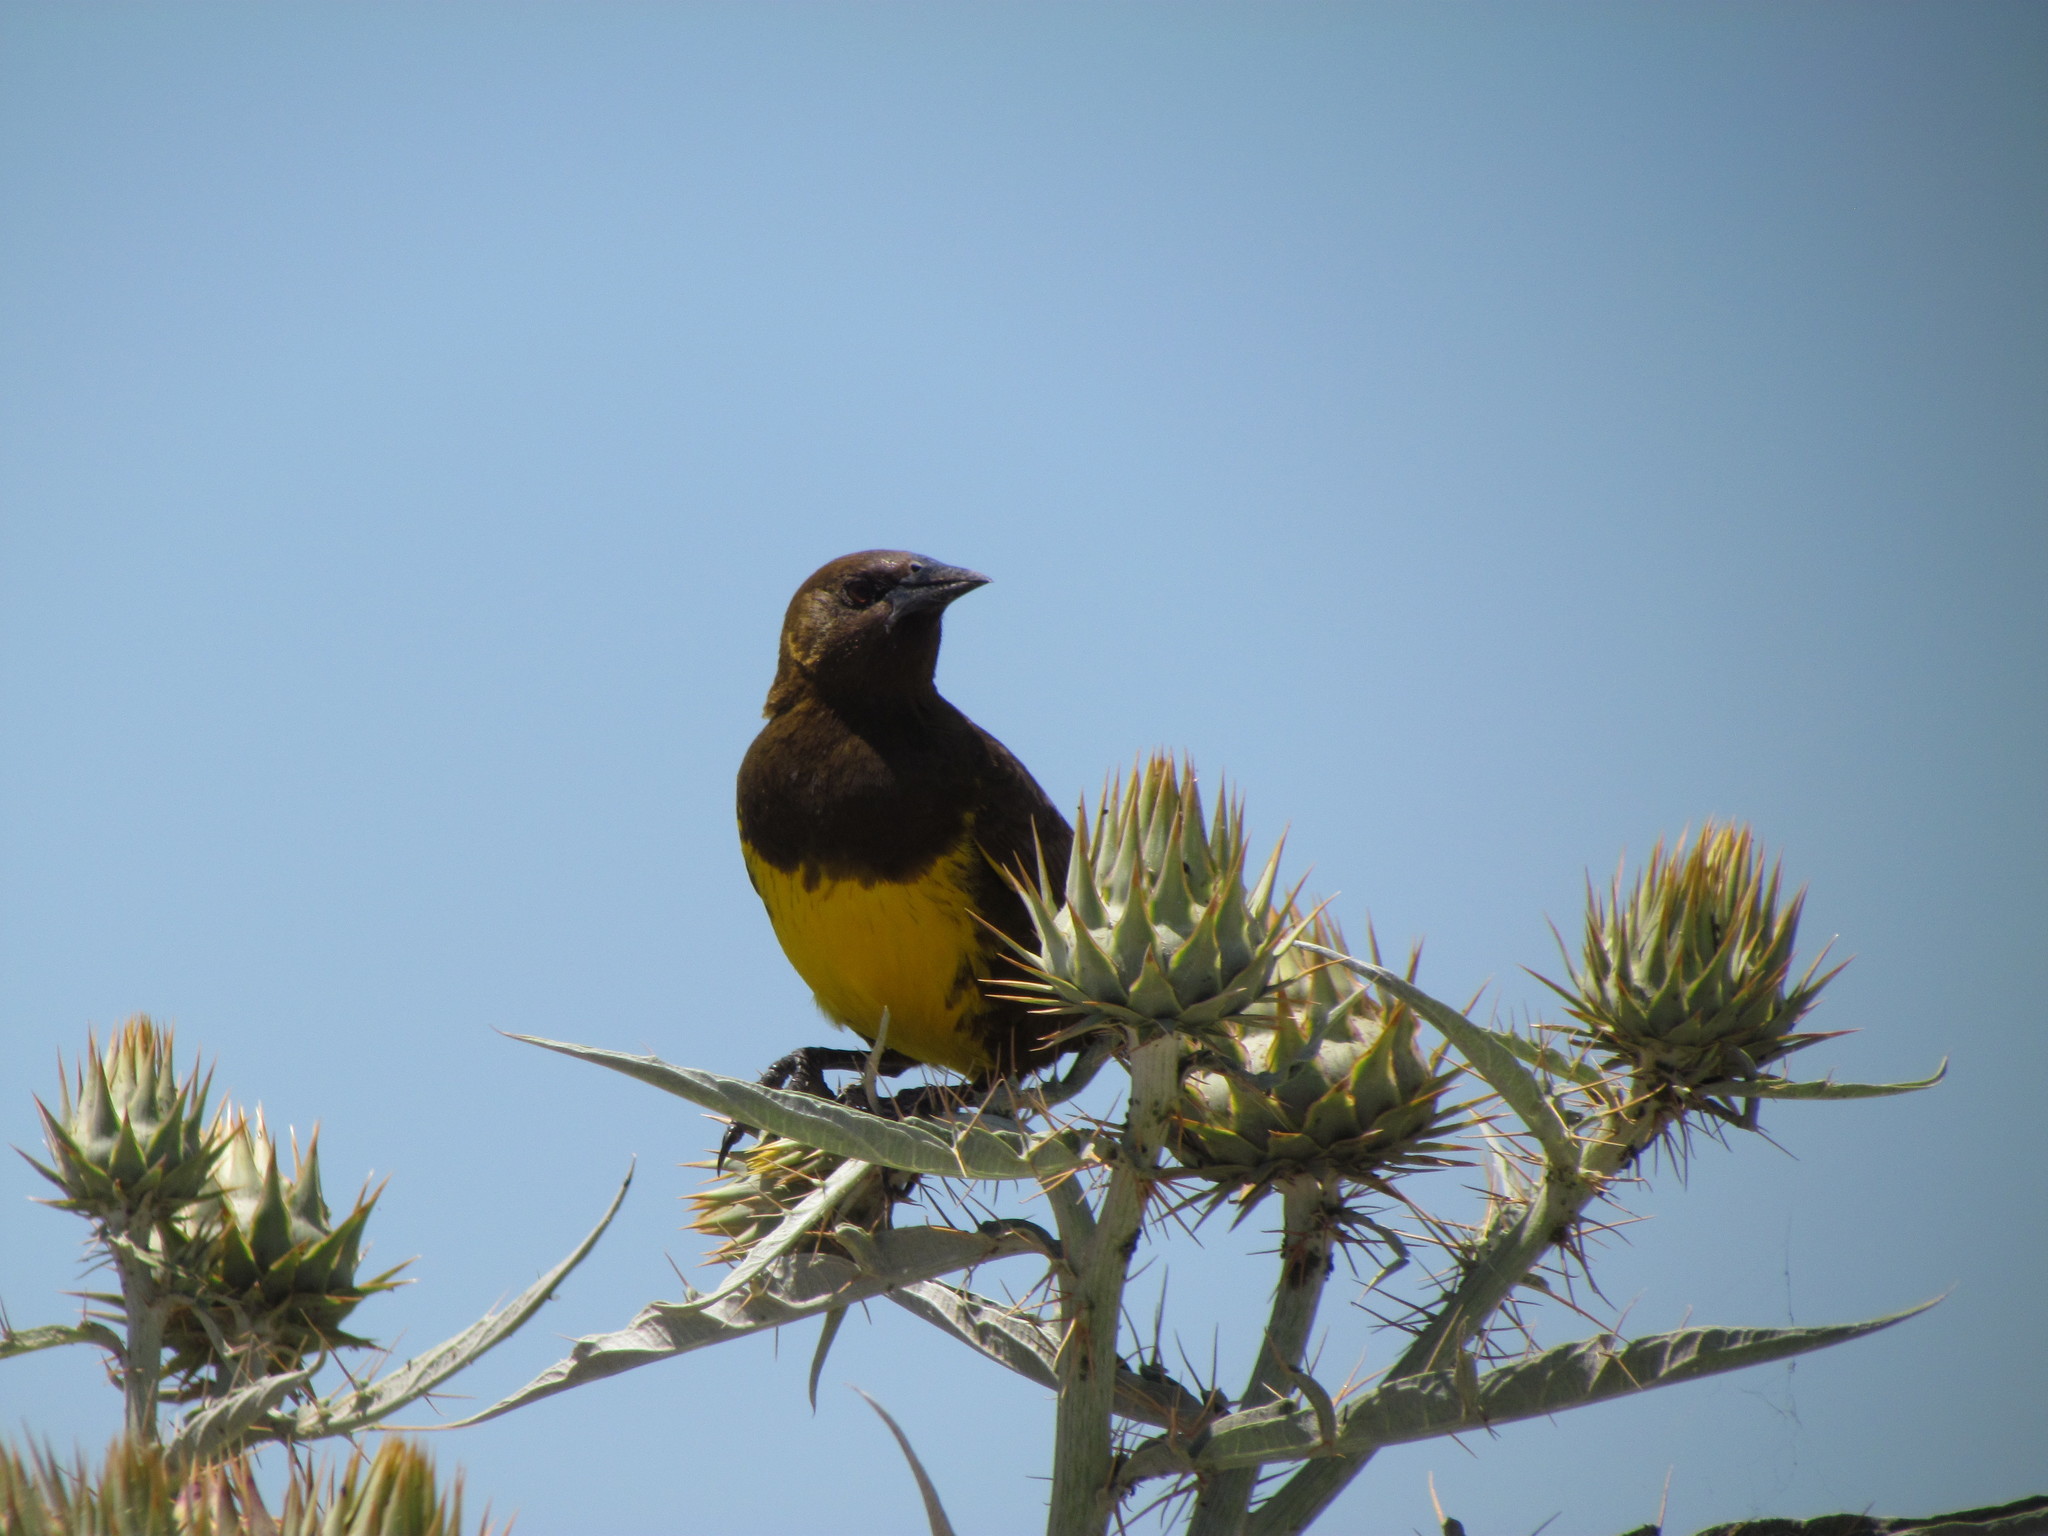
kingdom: Animalia
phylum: Chordata
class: Aves
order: Passeriformes
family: Icteridae
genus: Pseudoleistes
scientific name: Pseudoleistes virescens
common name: Brown-and-yellow marshbird
